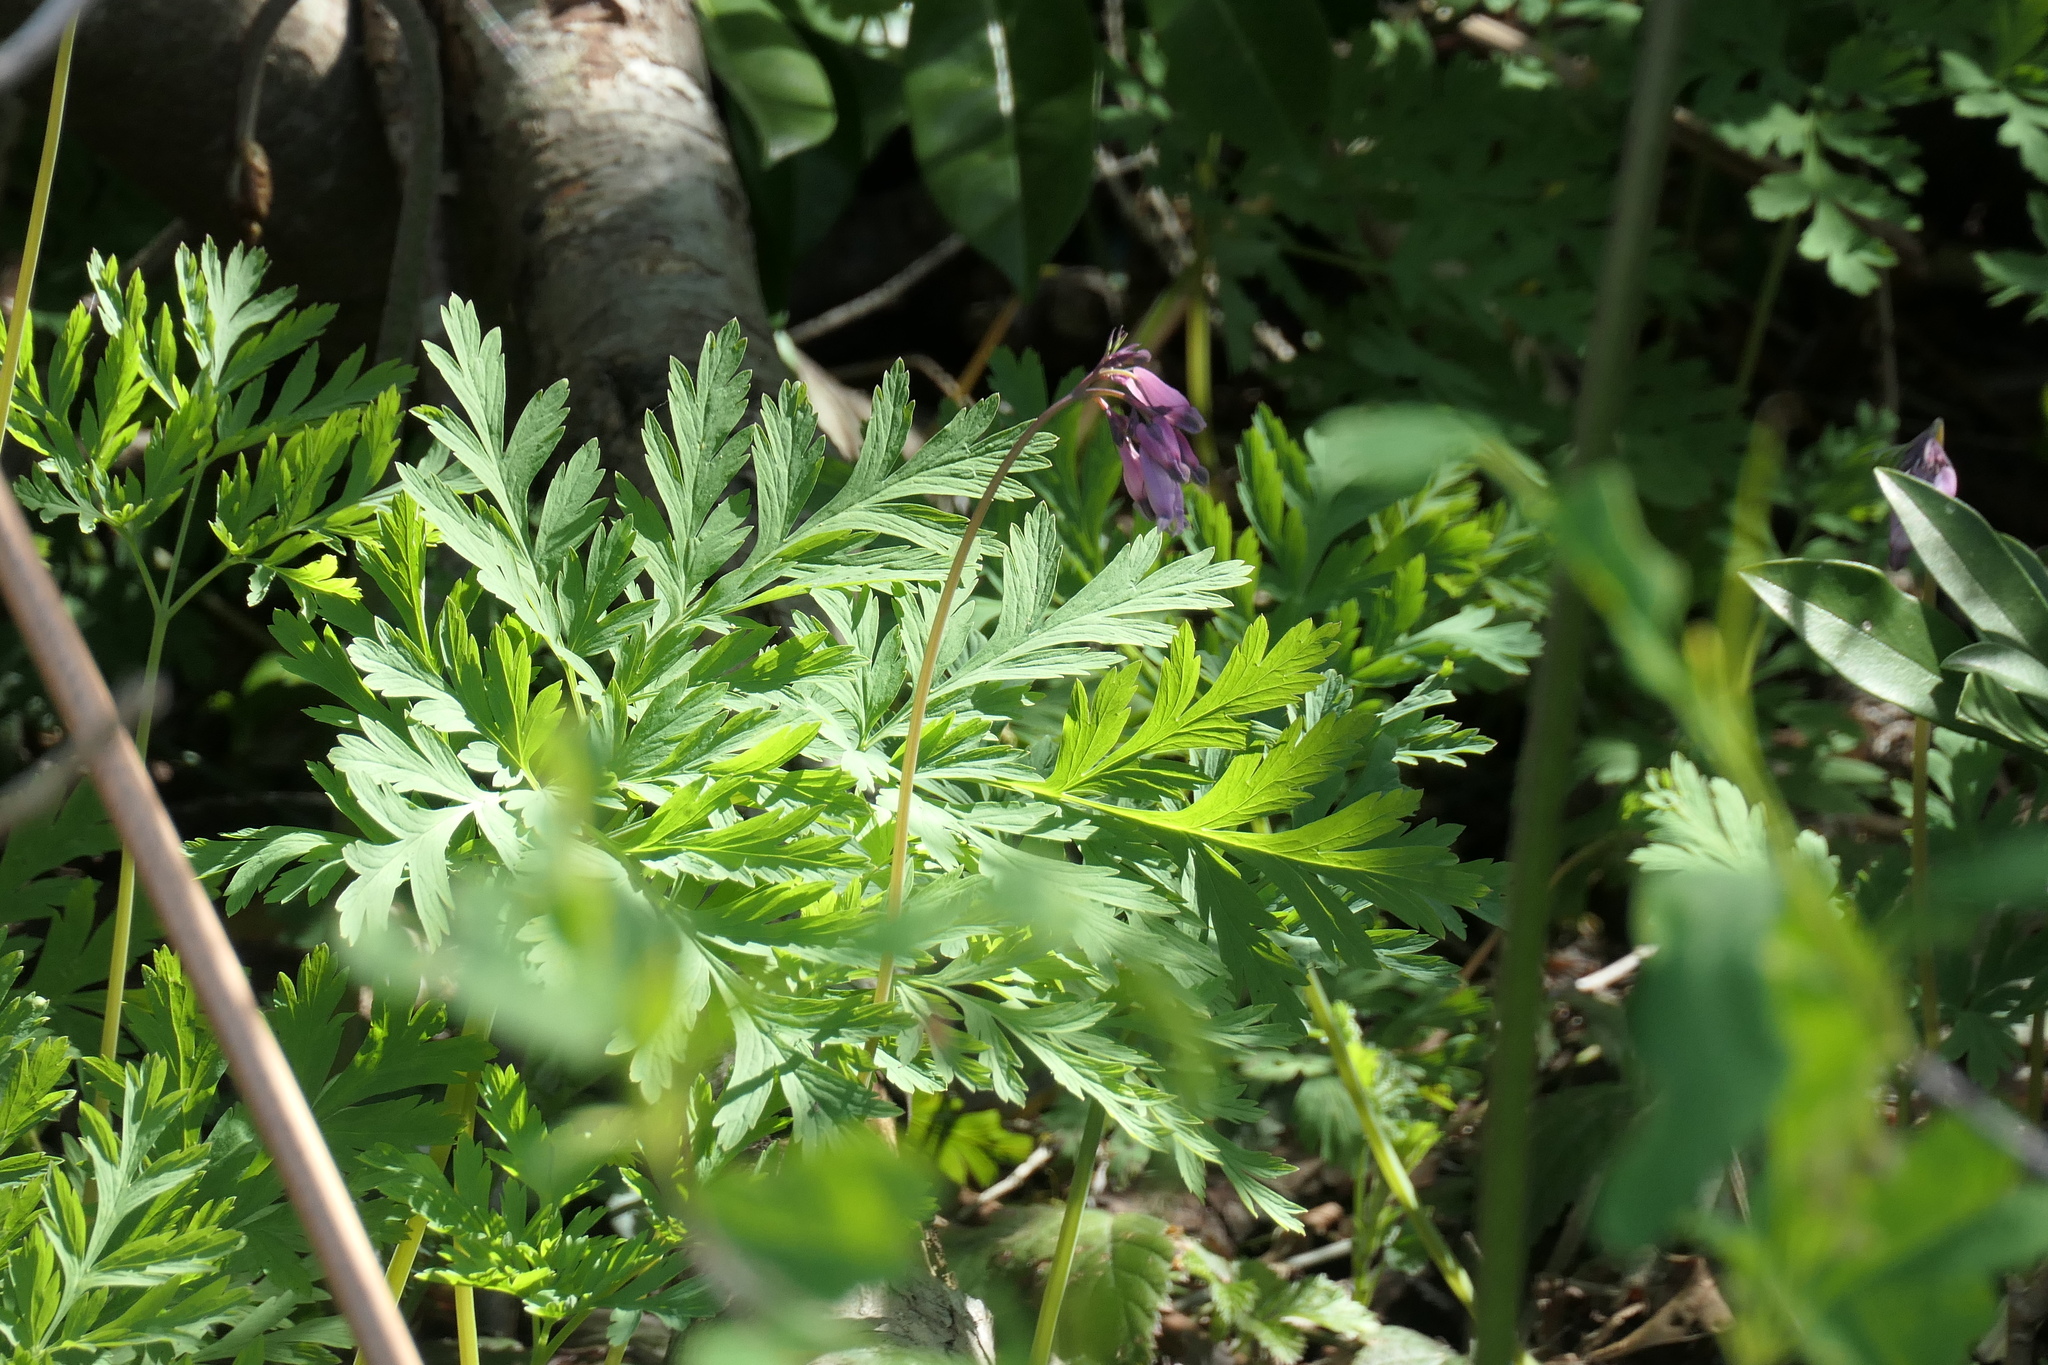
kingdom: Plantae
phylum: Tracheophyta
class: Magnoliopsida
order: Ranunculales
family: Papaveraceae
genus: Dicentra
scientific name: Dicentra formosa
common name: Bleeding-heart
